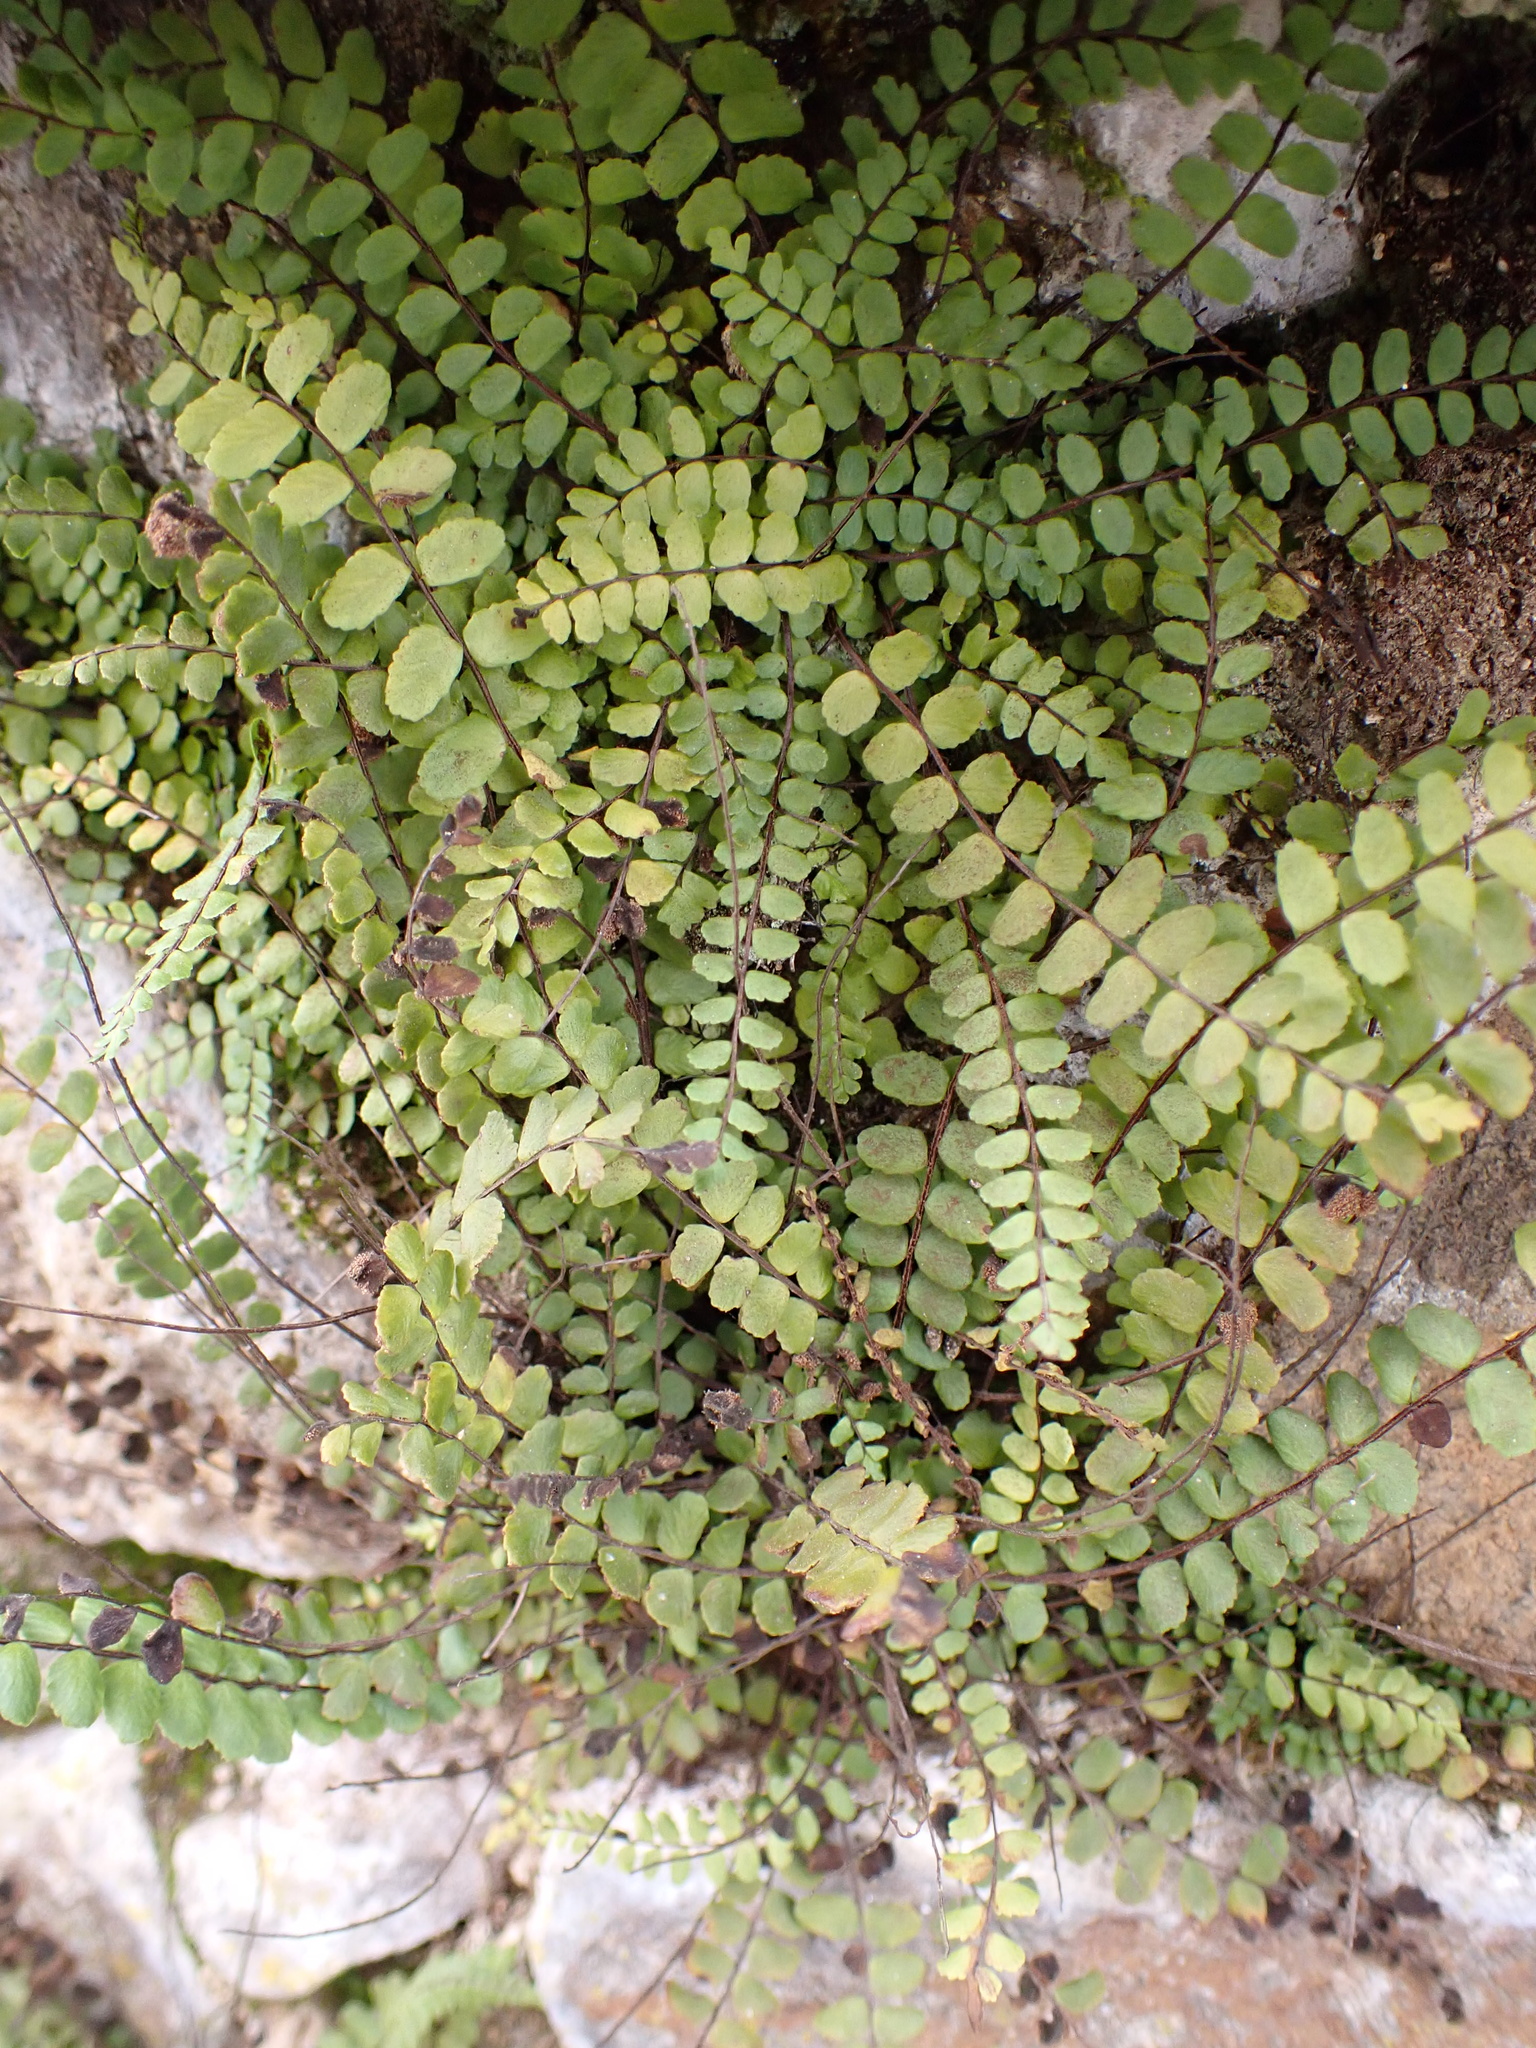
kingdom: Plantae
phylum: Tracheophyta
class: Polypodiopsida
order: Polypodiales
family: Aspleniaceae
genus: Asplenium
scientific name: Asplenium trichomanes
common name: Maidenhair spleenwort
